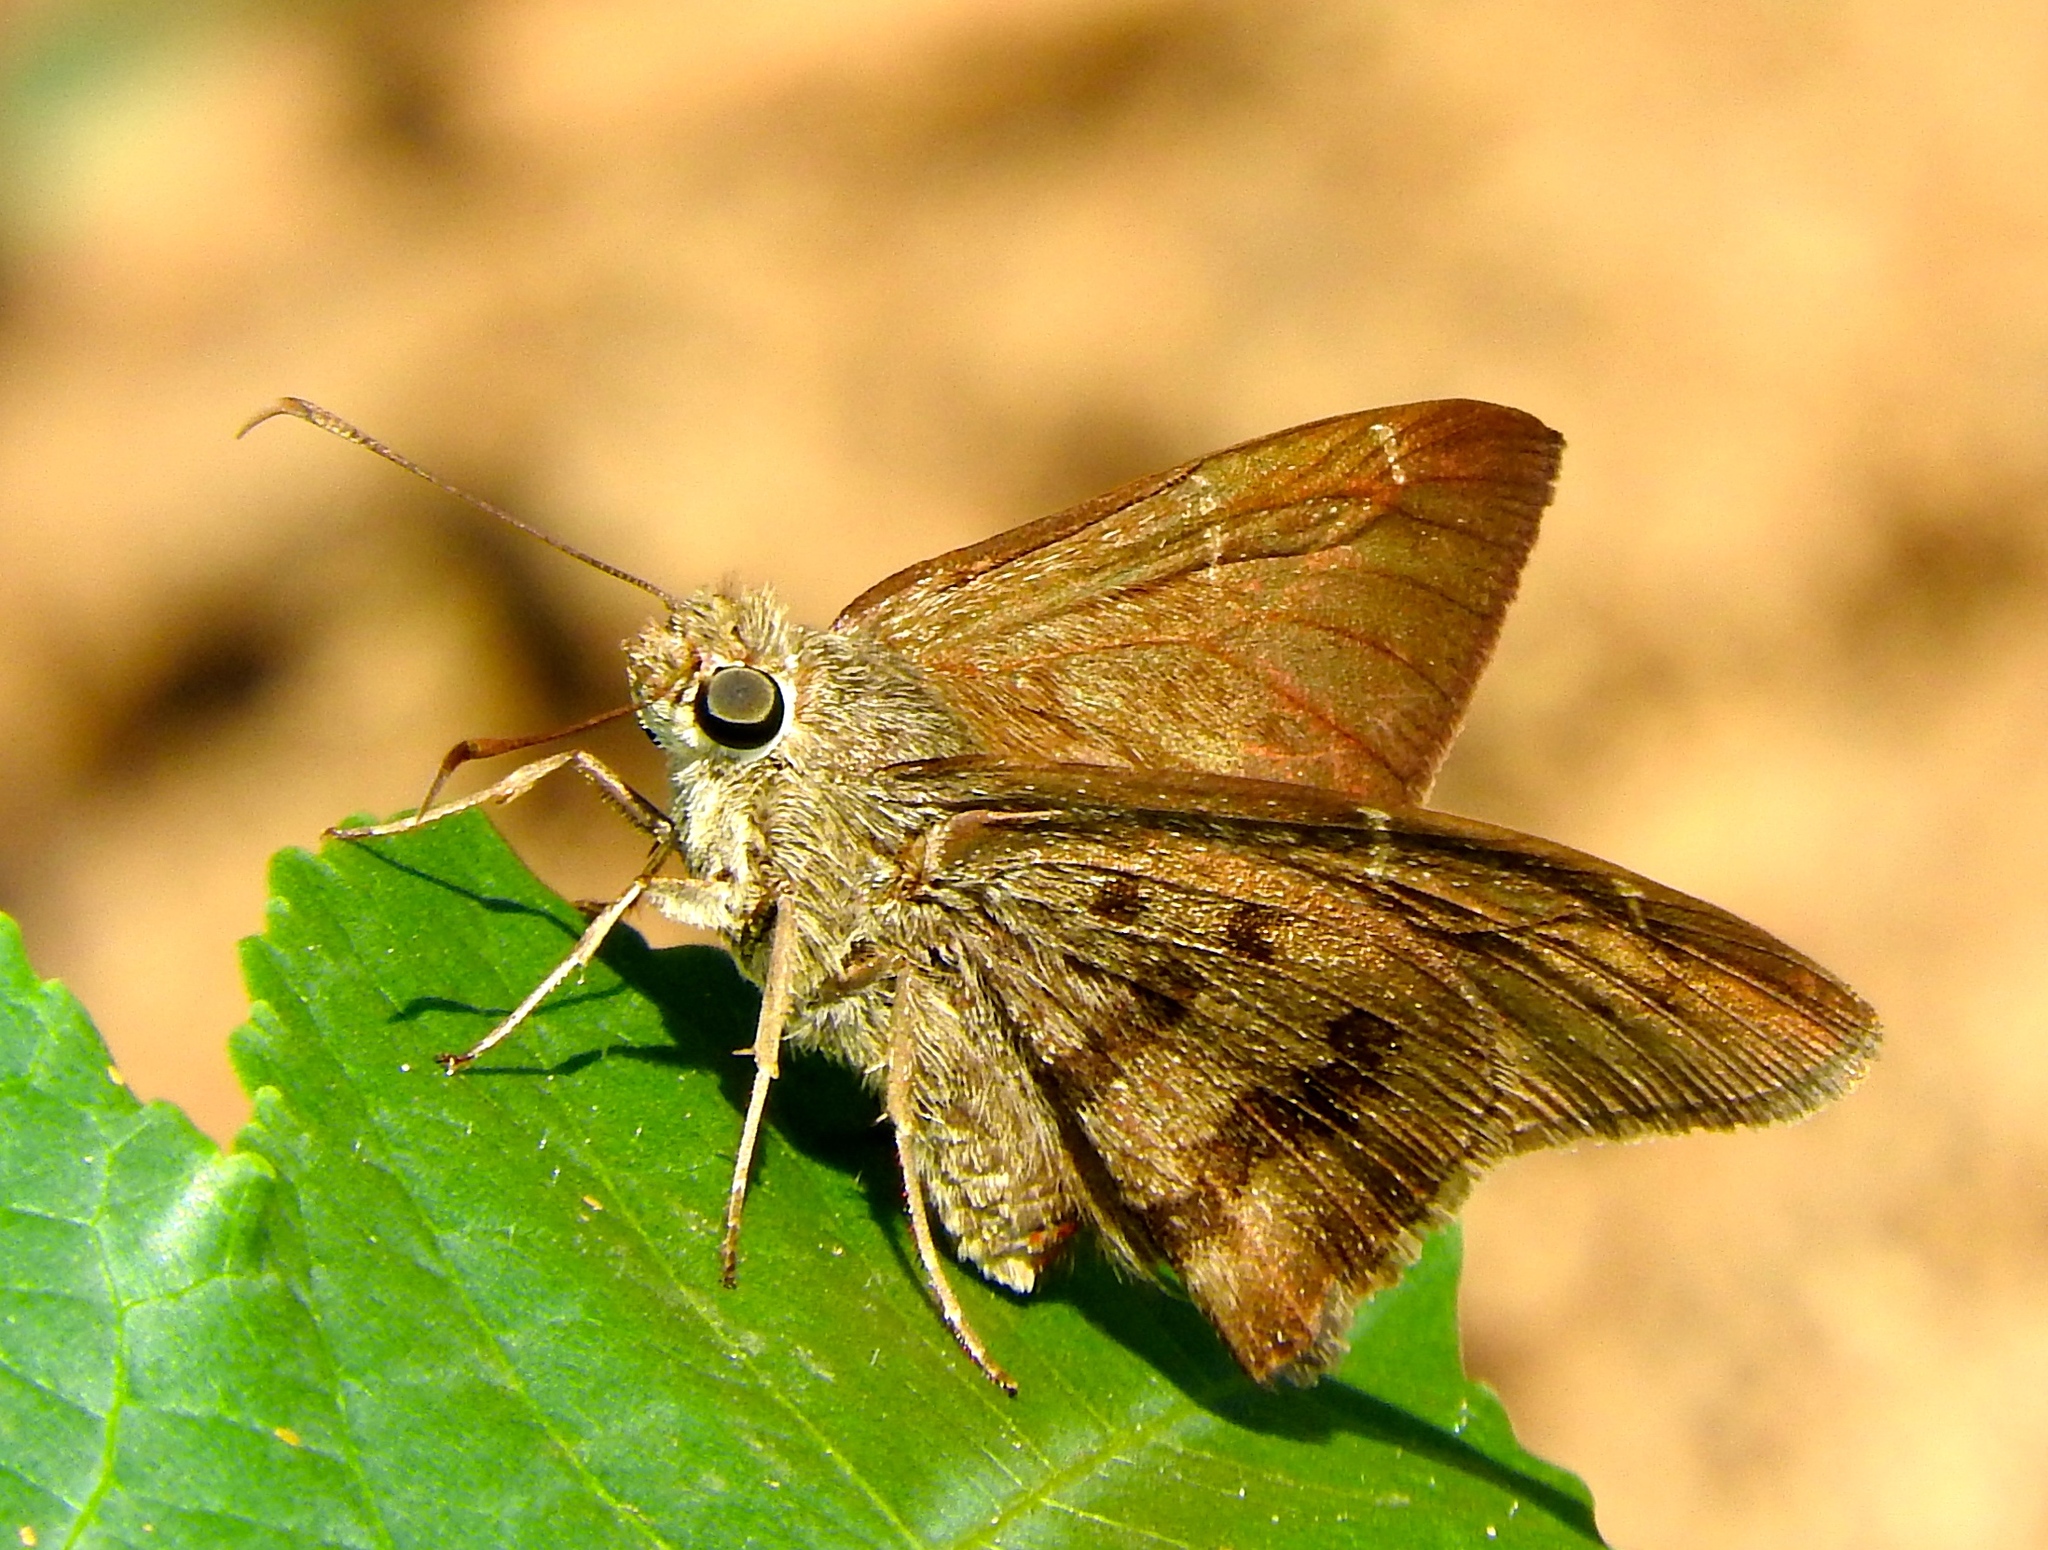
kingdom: Animalia
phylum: Arthropoda
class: Insecta
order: Lepidoptera
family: Hesperiidae
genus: Urbanus
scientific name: Urbanus simplicius
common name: Plain longtail
